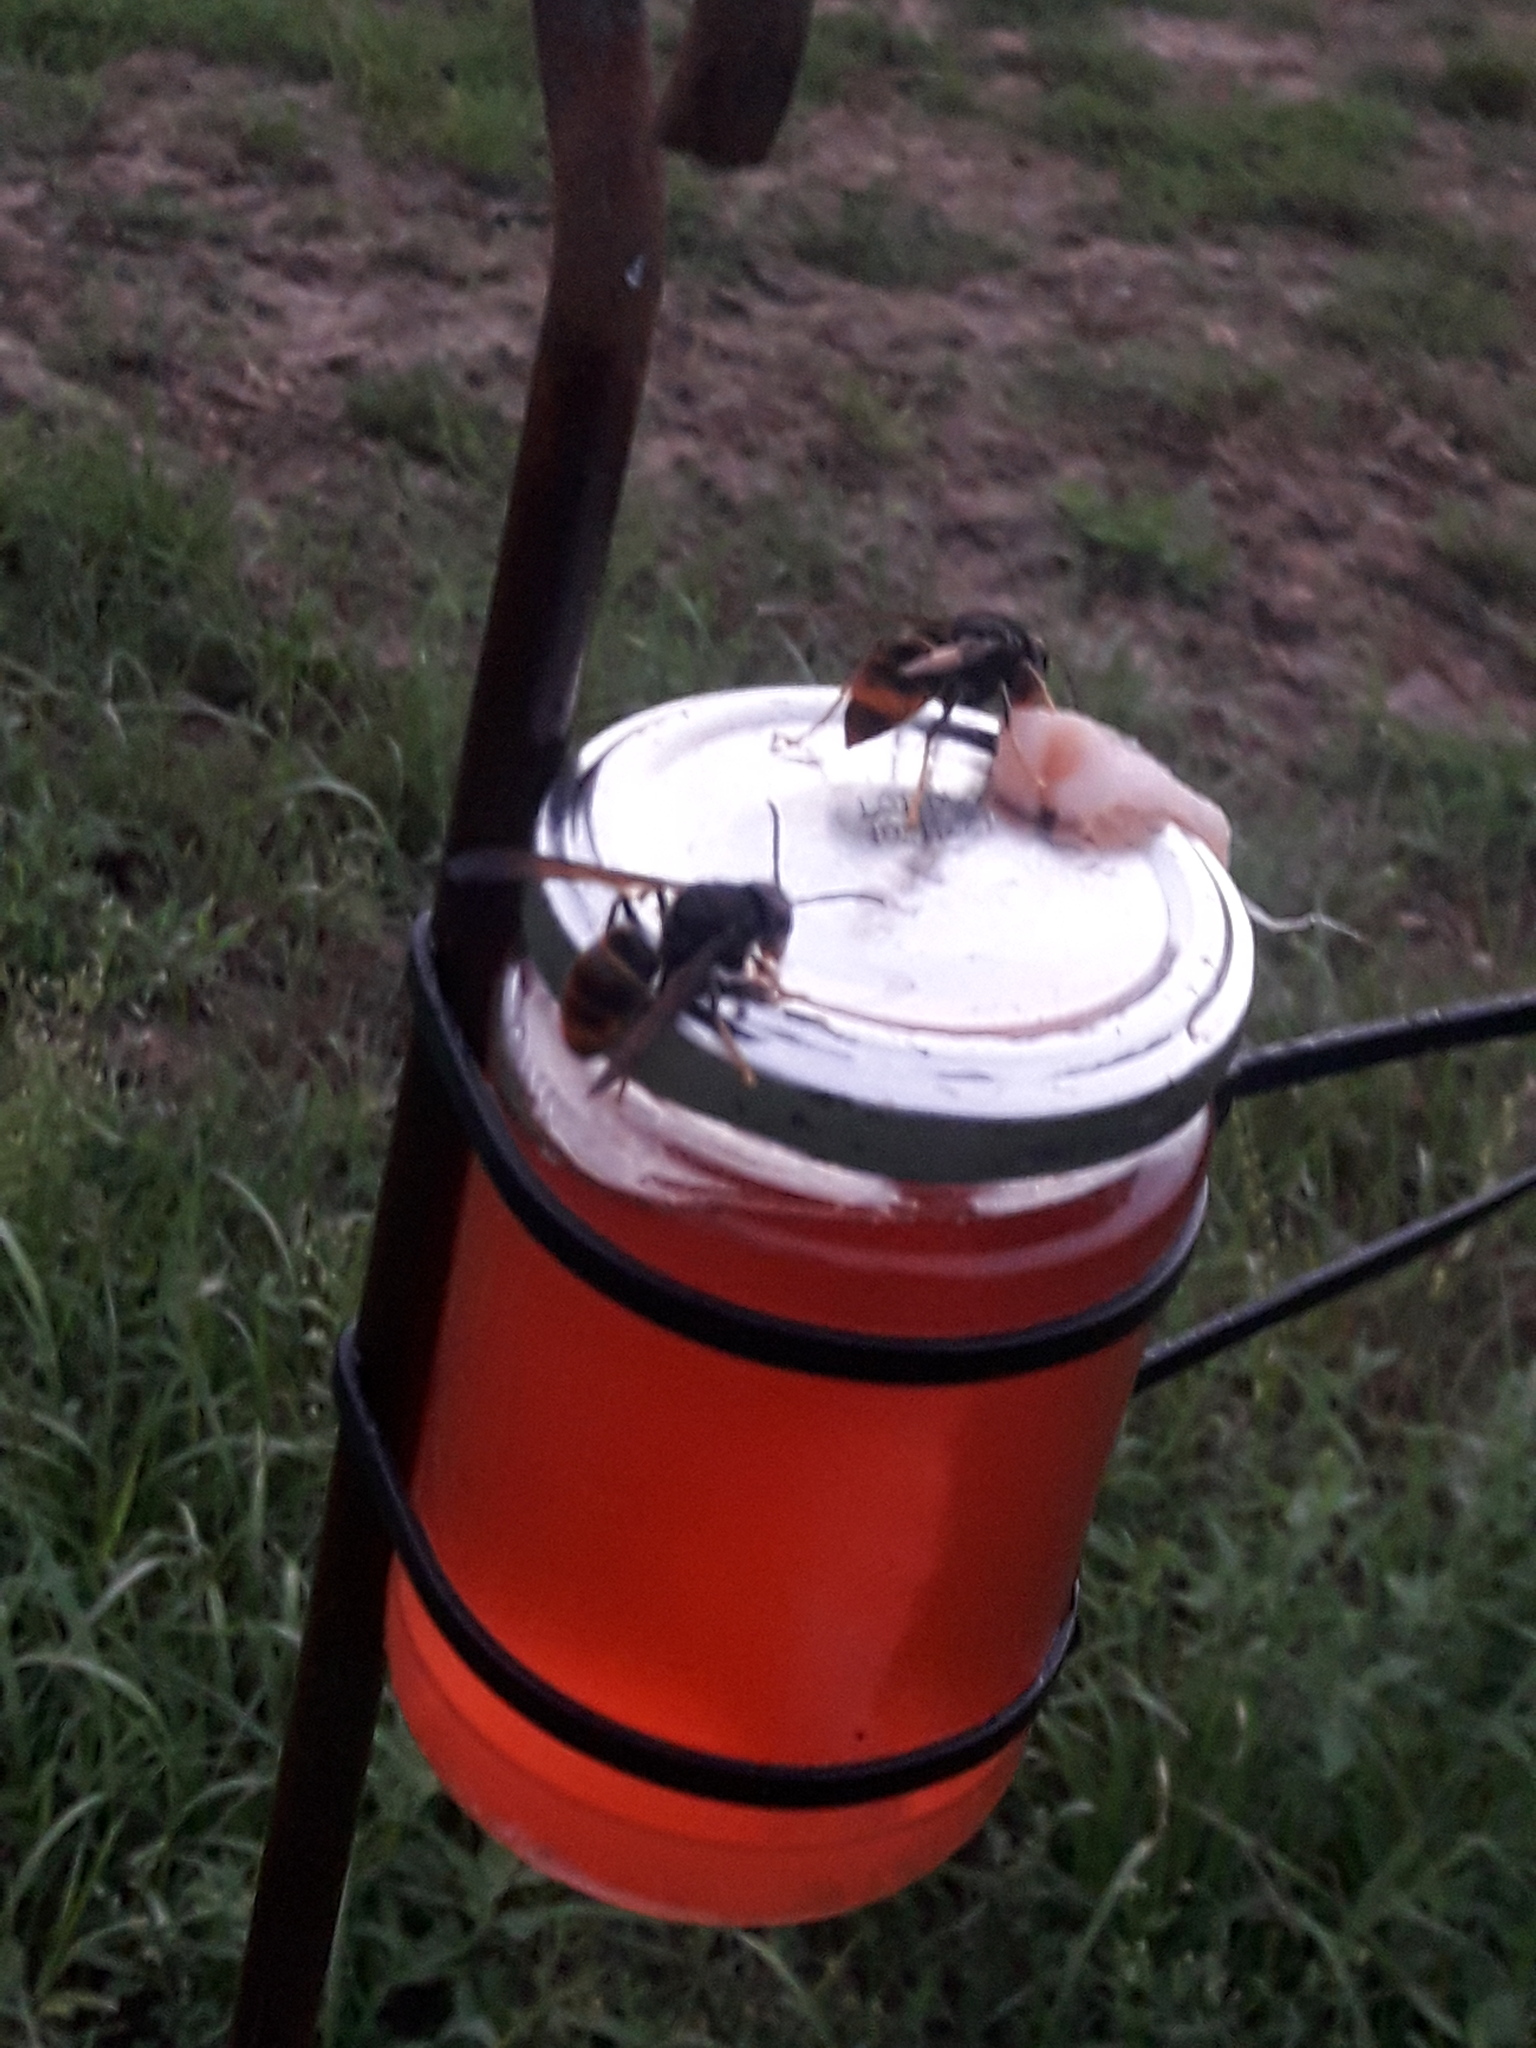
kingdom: Animalia
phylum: Arthropoda
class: Insecta
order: Hymenoptera
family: Vespidae
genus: Vespa
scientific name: Vespa velutina
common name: Asian hornet
